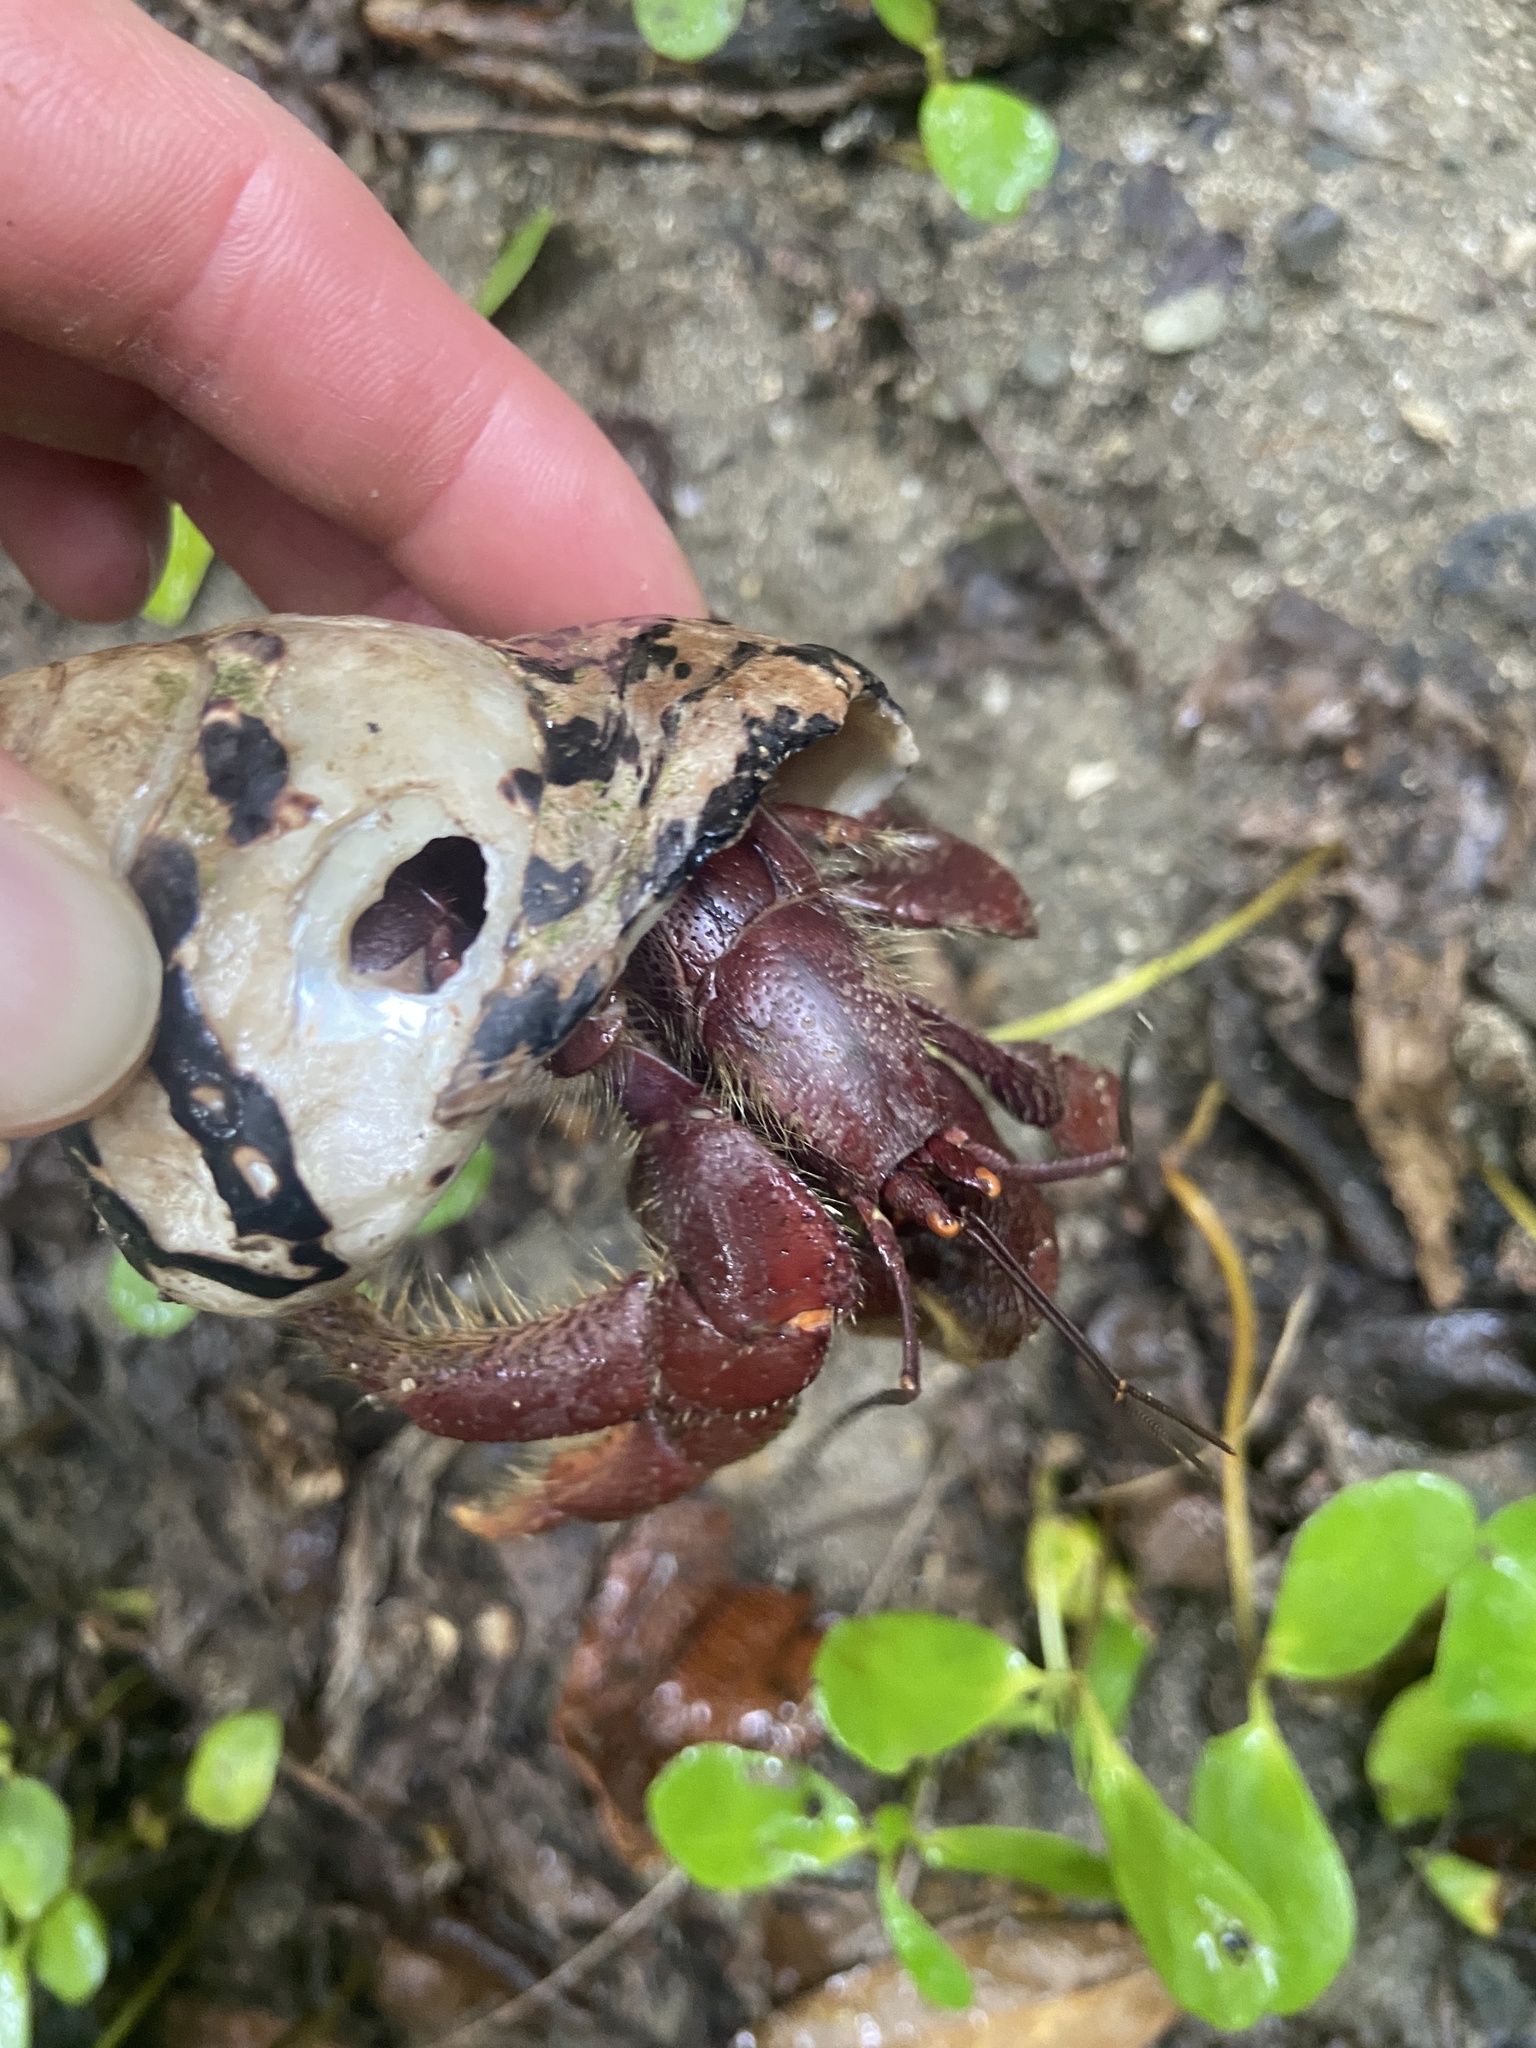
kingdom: Animalia
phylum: Arthropoda
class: Malacostraca
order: Decapoda
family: Coenobitidae
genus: Coenobita
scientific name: Coenobita clypeatus
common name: Caribbean hermit crab
